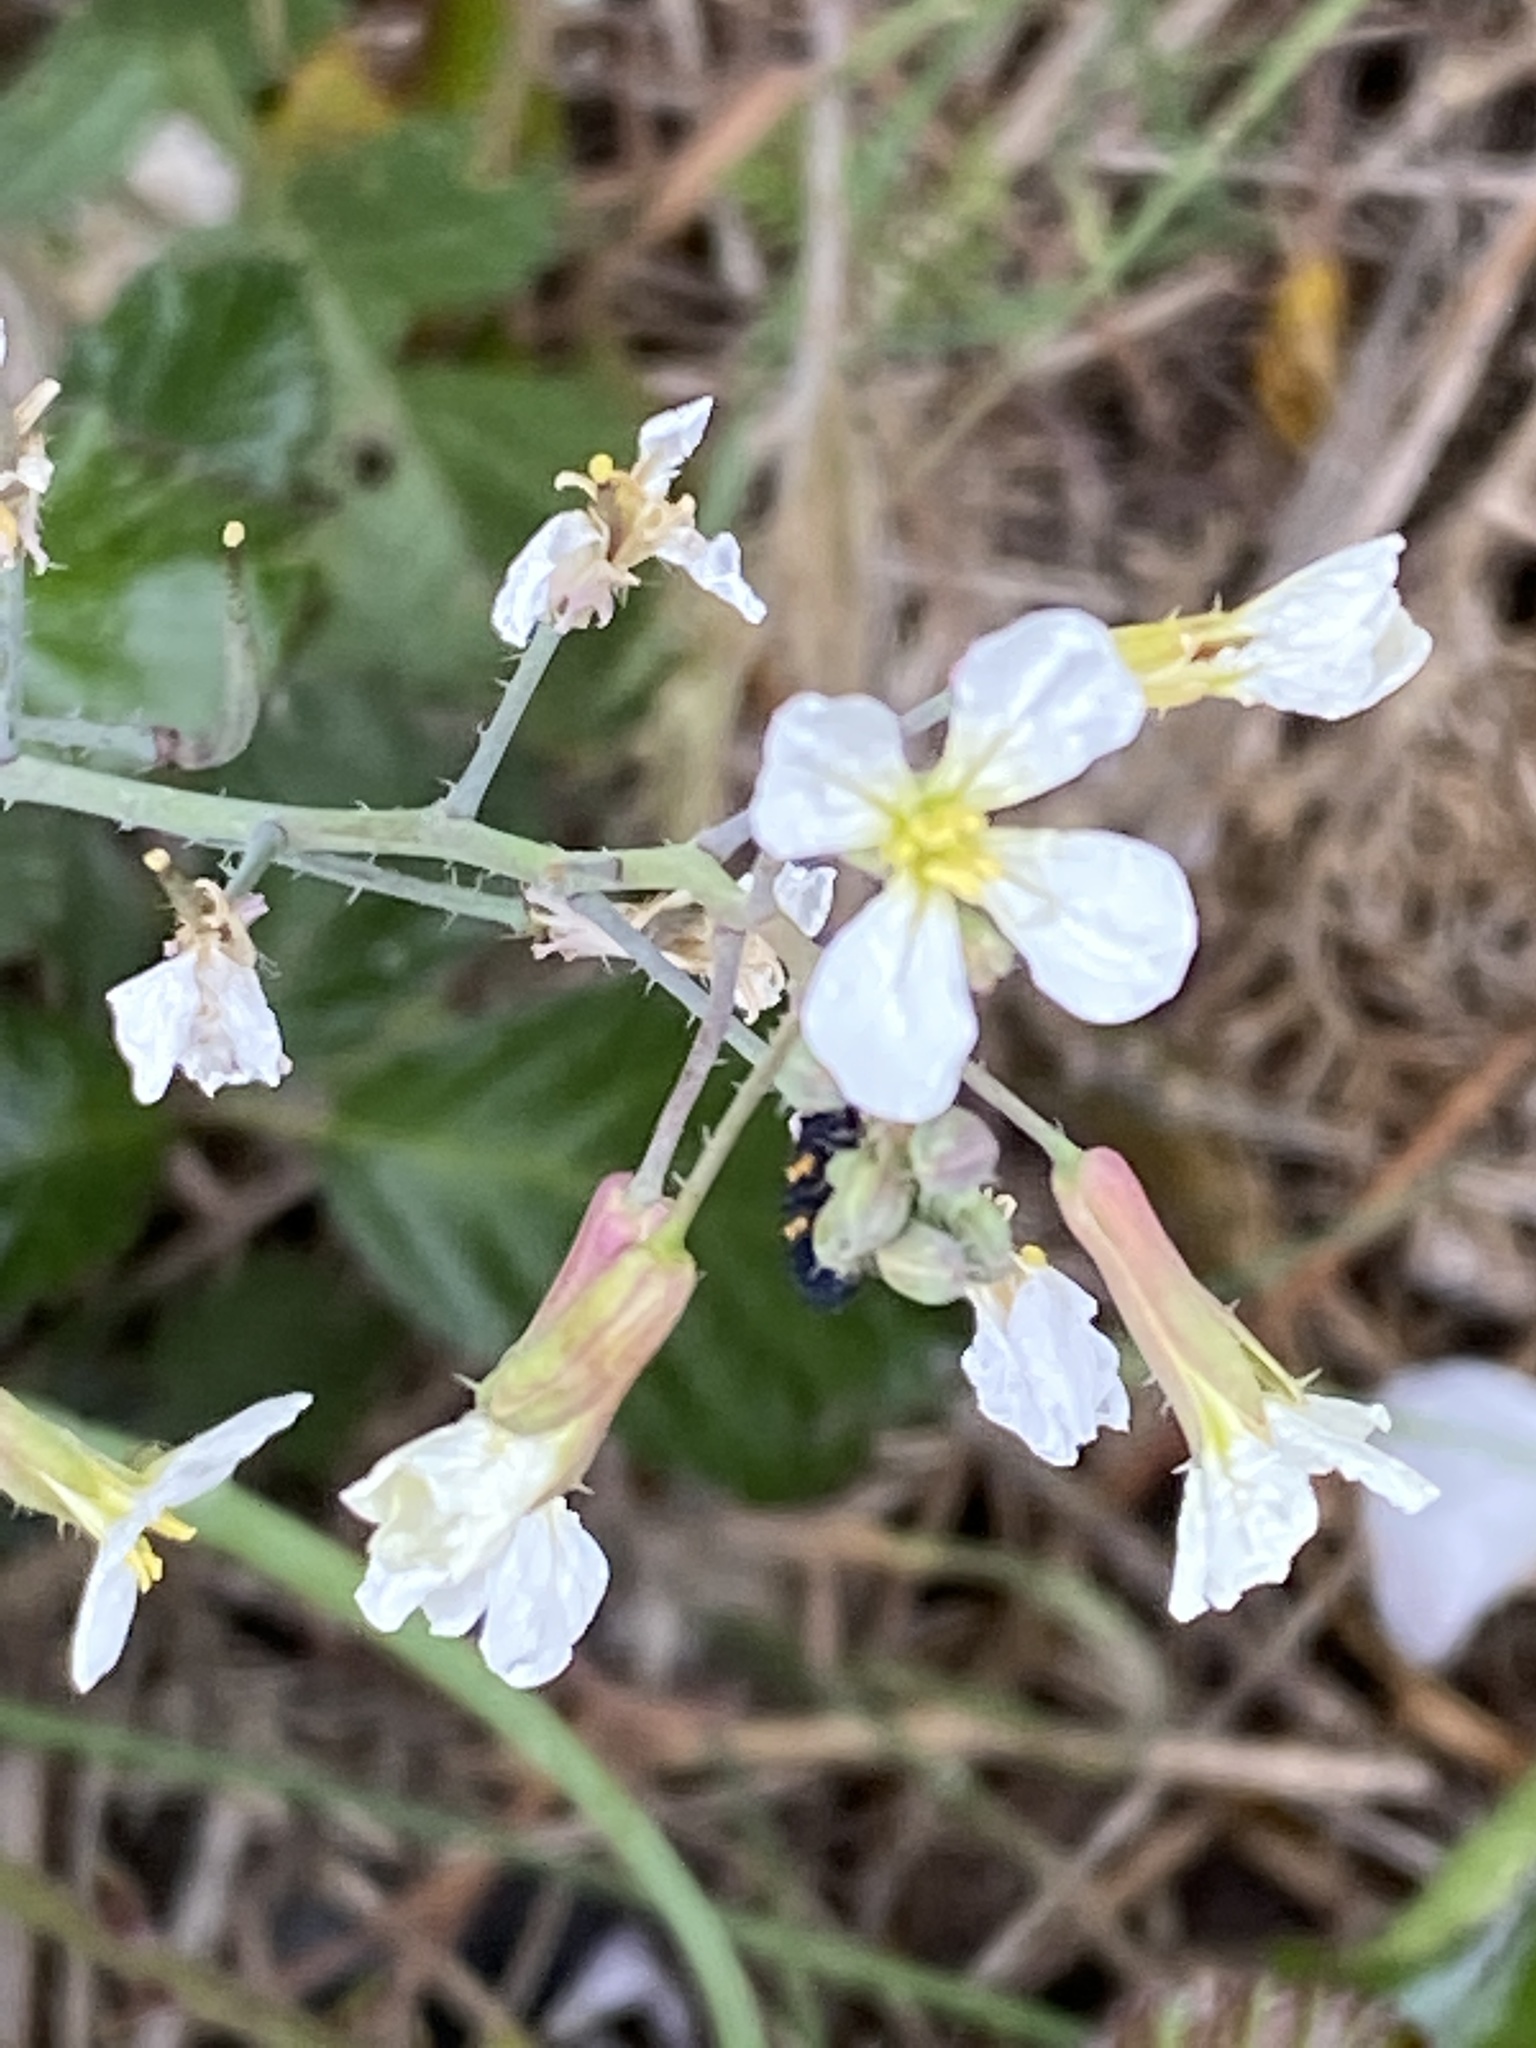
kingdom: Plantae
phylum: Tracheophyta
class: Magnoliopsida
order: Brassicales
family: Brassicaceae
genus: Raphanus
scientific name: Raphanus raphanistrum
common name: Wild radish
